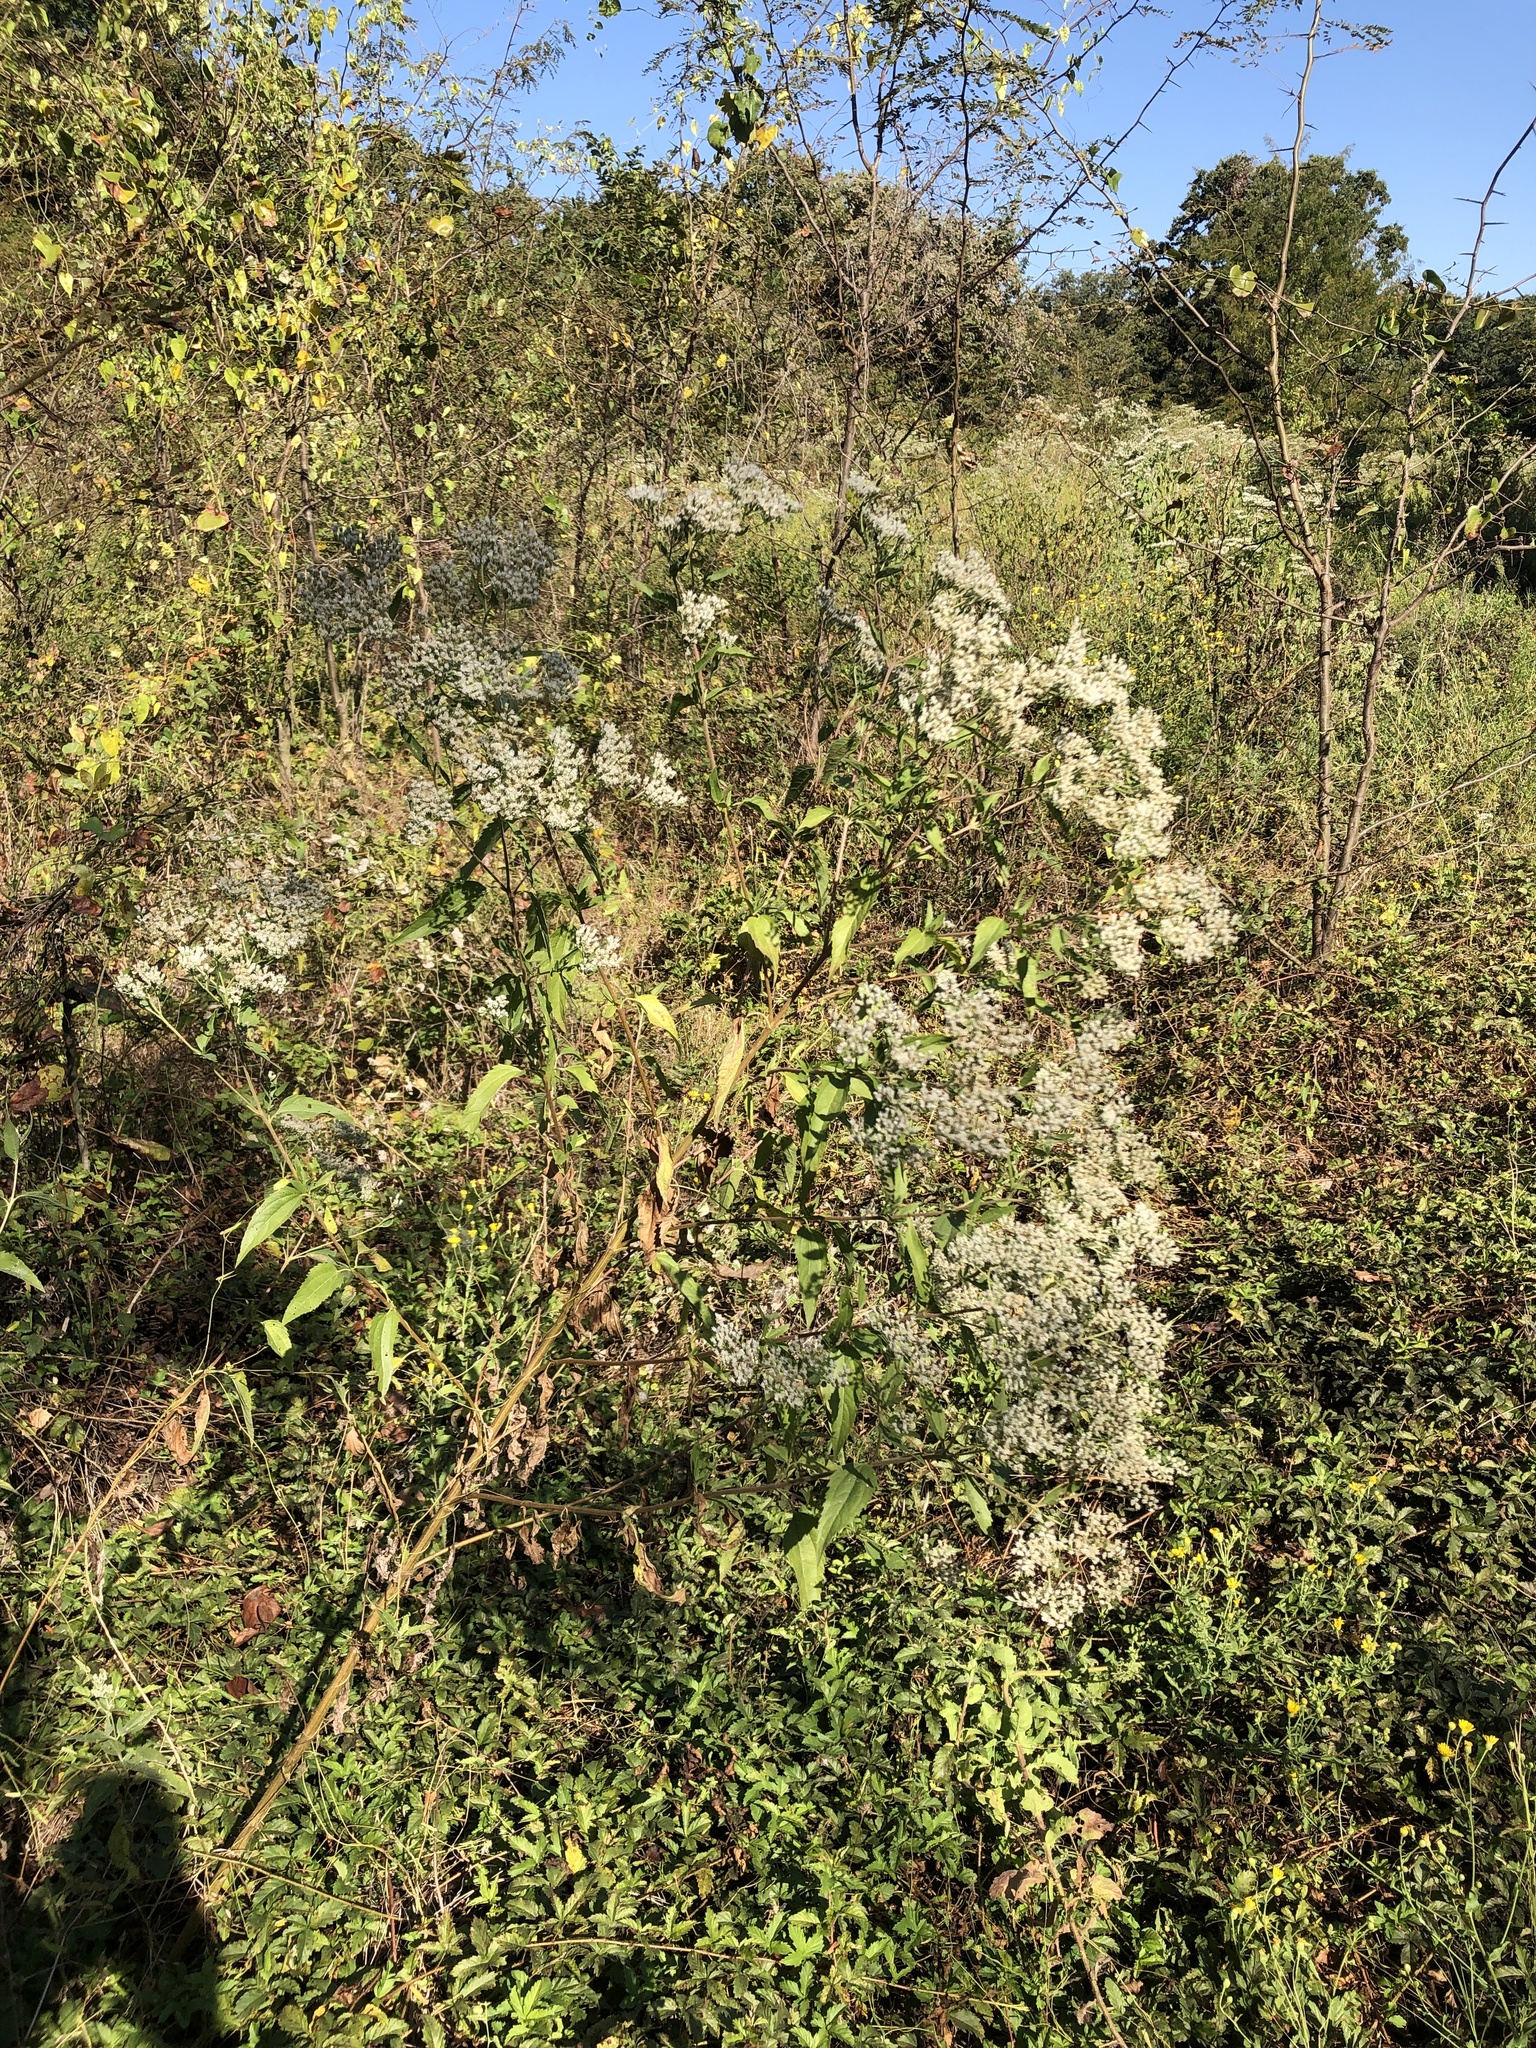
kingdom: Plantae
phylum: Tracheophyta
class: Magnoliopsida
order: Asterales
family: Asteraceae
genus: Eupatorium
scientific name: Eupatorium serotinum
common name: Late boneset
